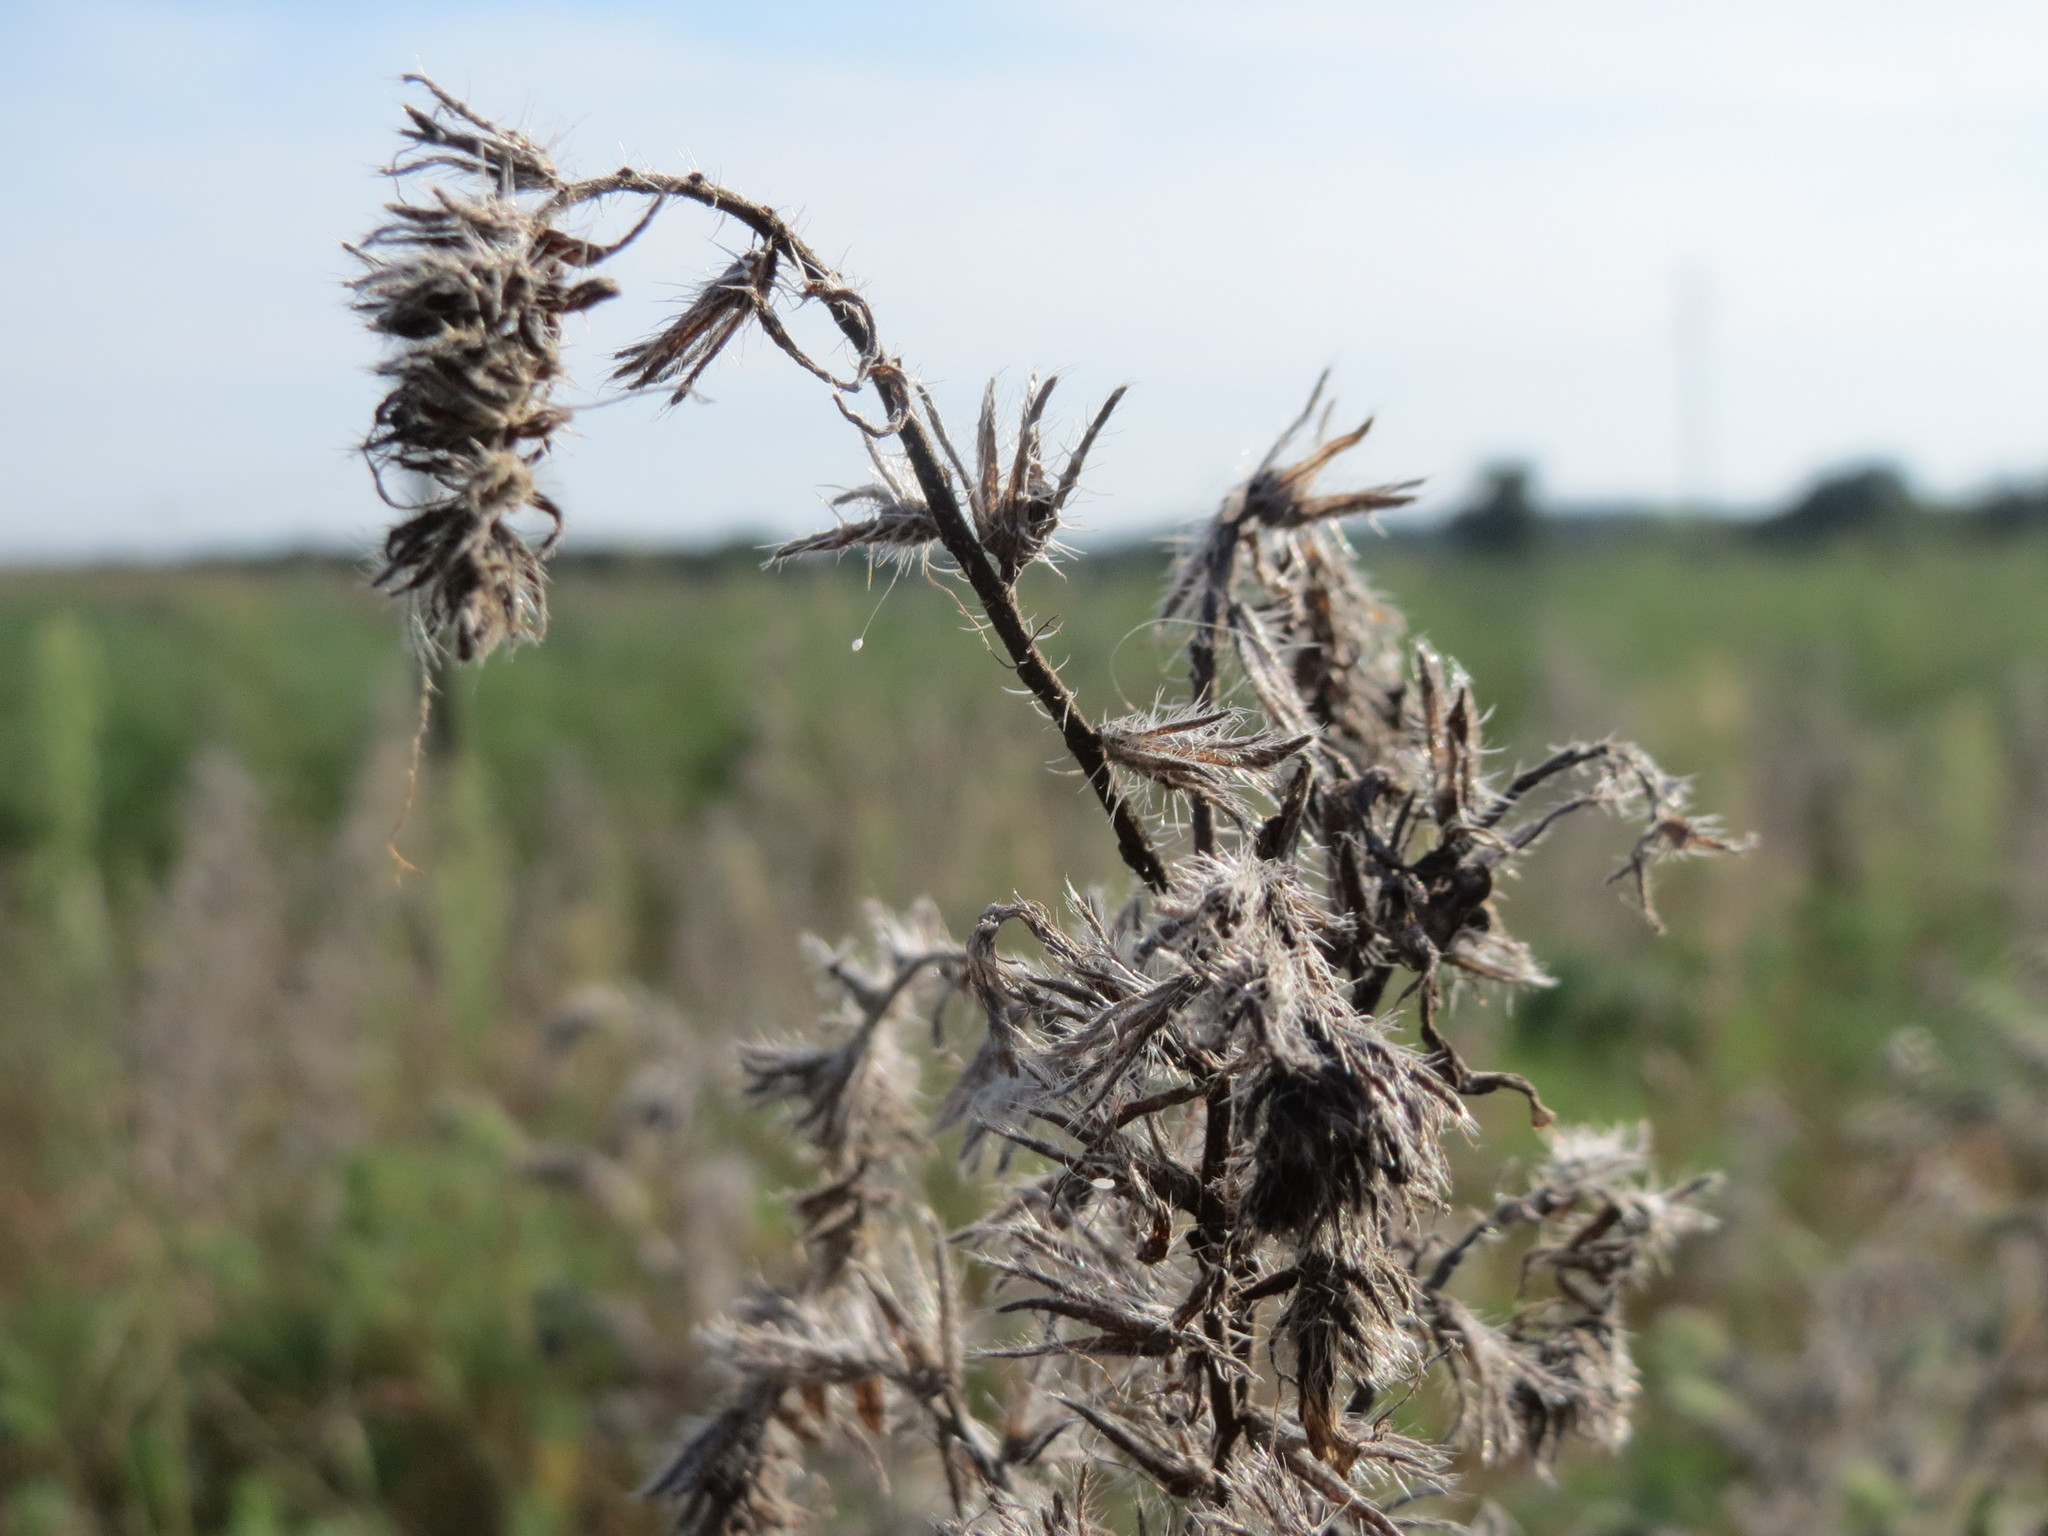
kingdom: Plantae
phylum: Tracheophyta
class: Magnoliopsida
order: Boraginales
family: Boraginaceae
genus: Echium
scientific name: Echium vulgare
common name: Common viper's bugloss
